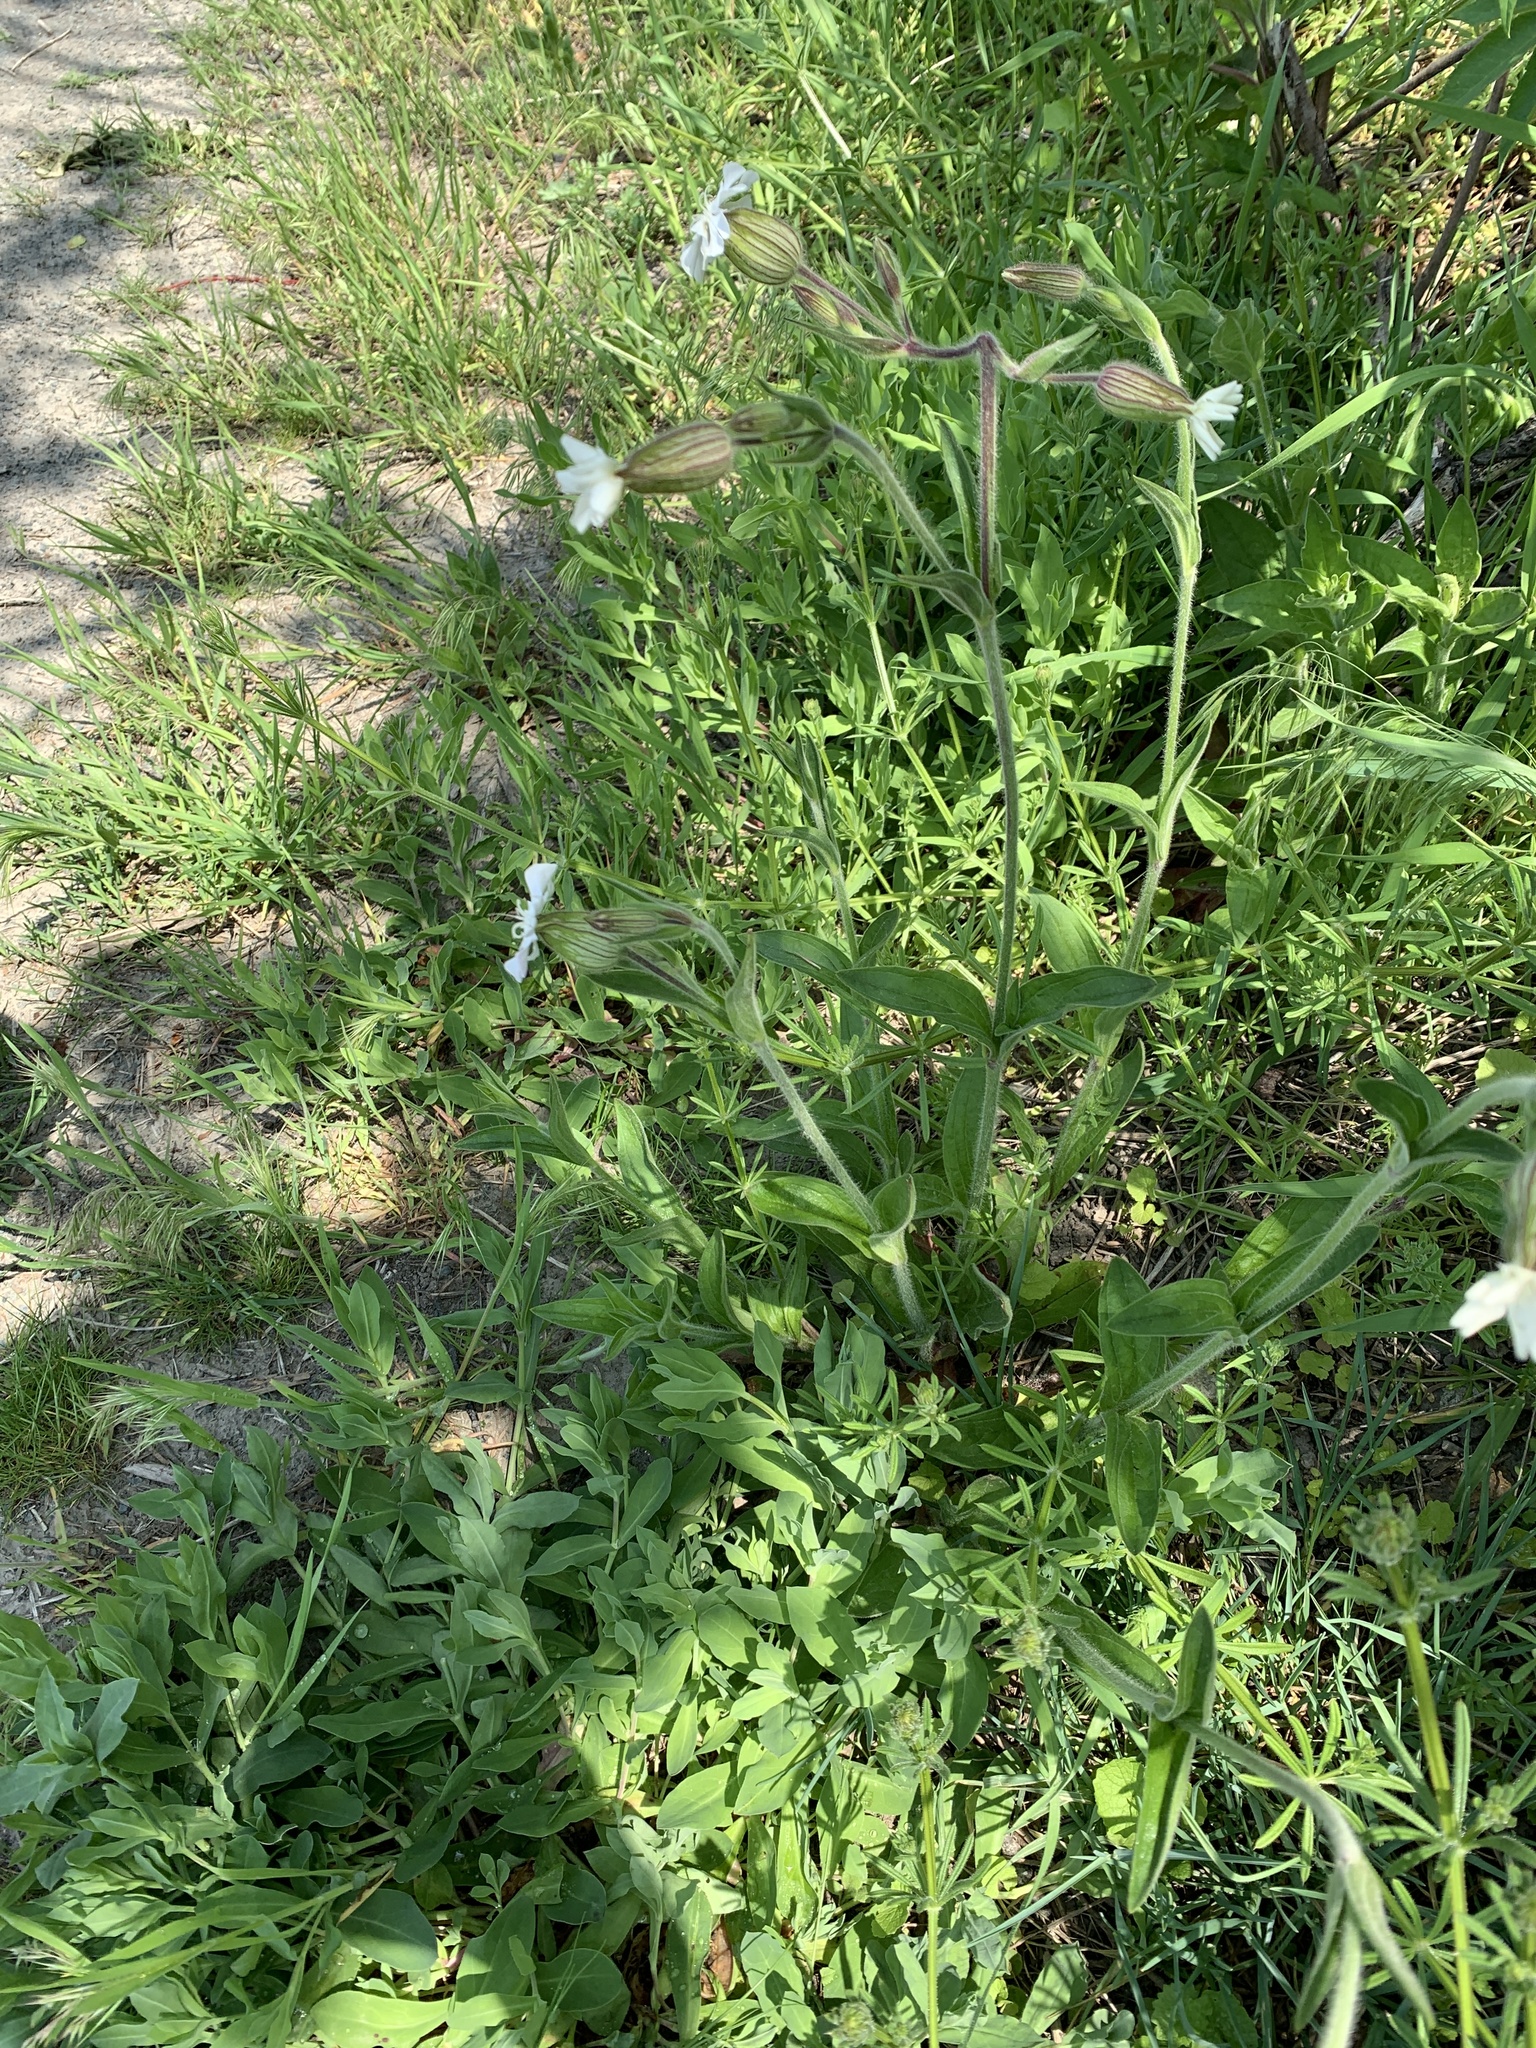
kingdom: Plantae
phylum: Tracheophyta
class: Magnoliopsida
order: Caryophyllales
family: Caryophyllaceae
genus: Silene
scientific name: Silene latifolia
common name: White campion
